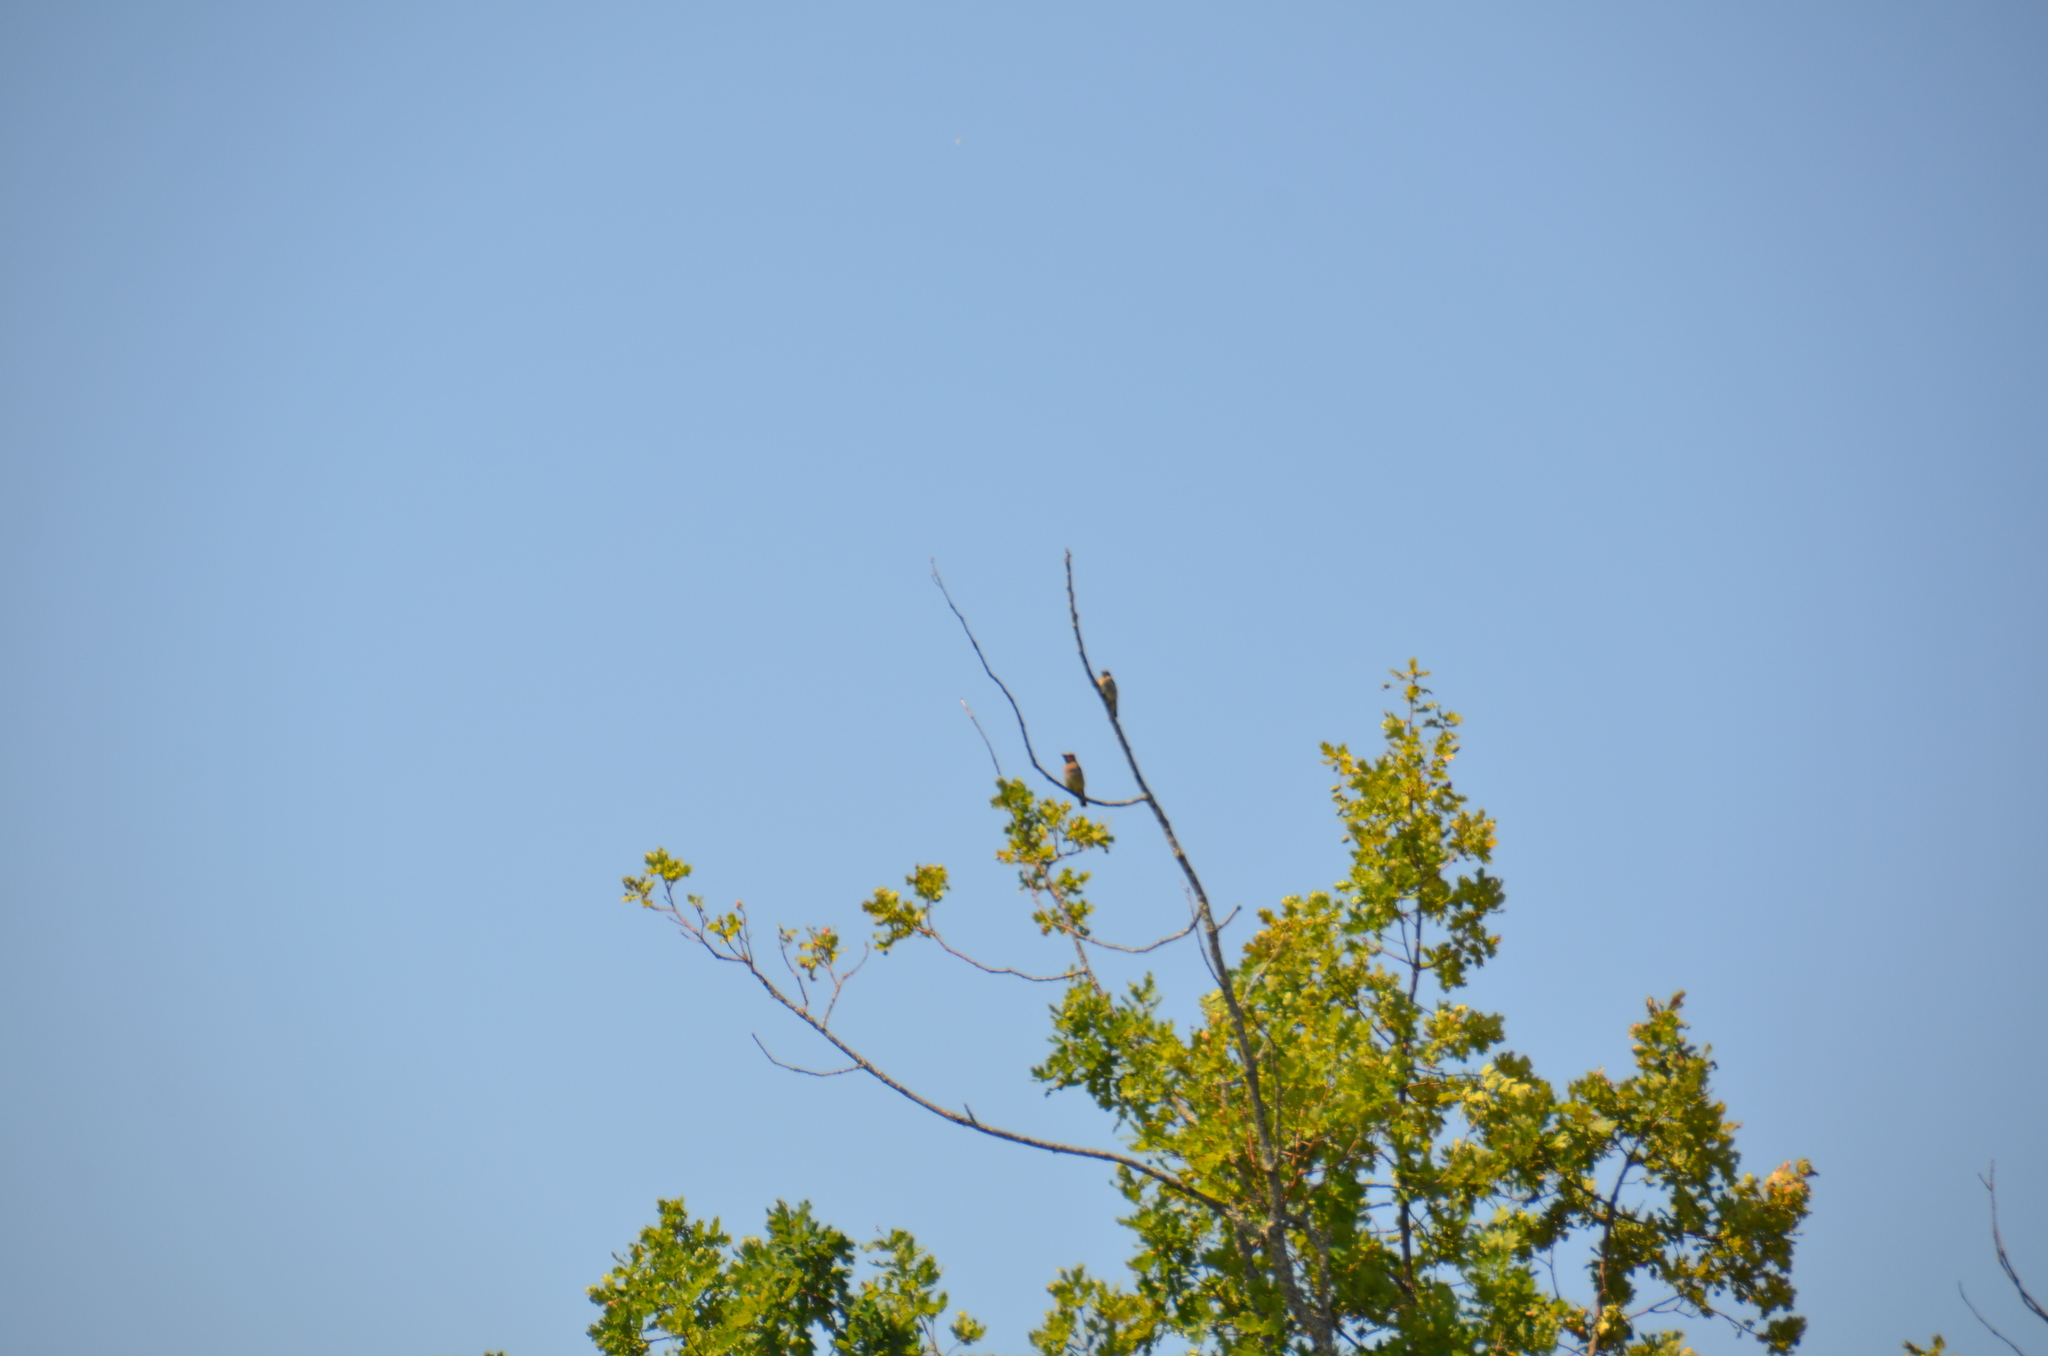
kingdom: Animalia
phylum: Chordata
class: Aves
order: Passeriformes
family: Bombycillidae
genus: Bombycilla
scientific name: Bombycilla cedrorum
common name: Cedar waxwing
